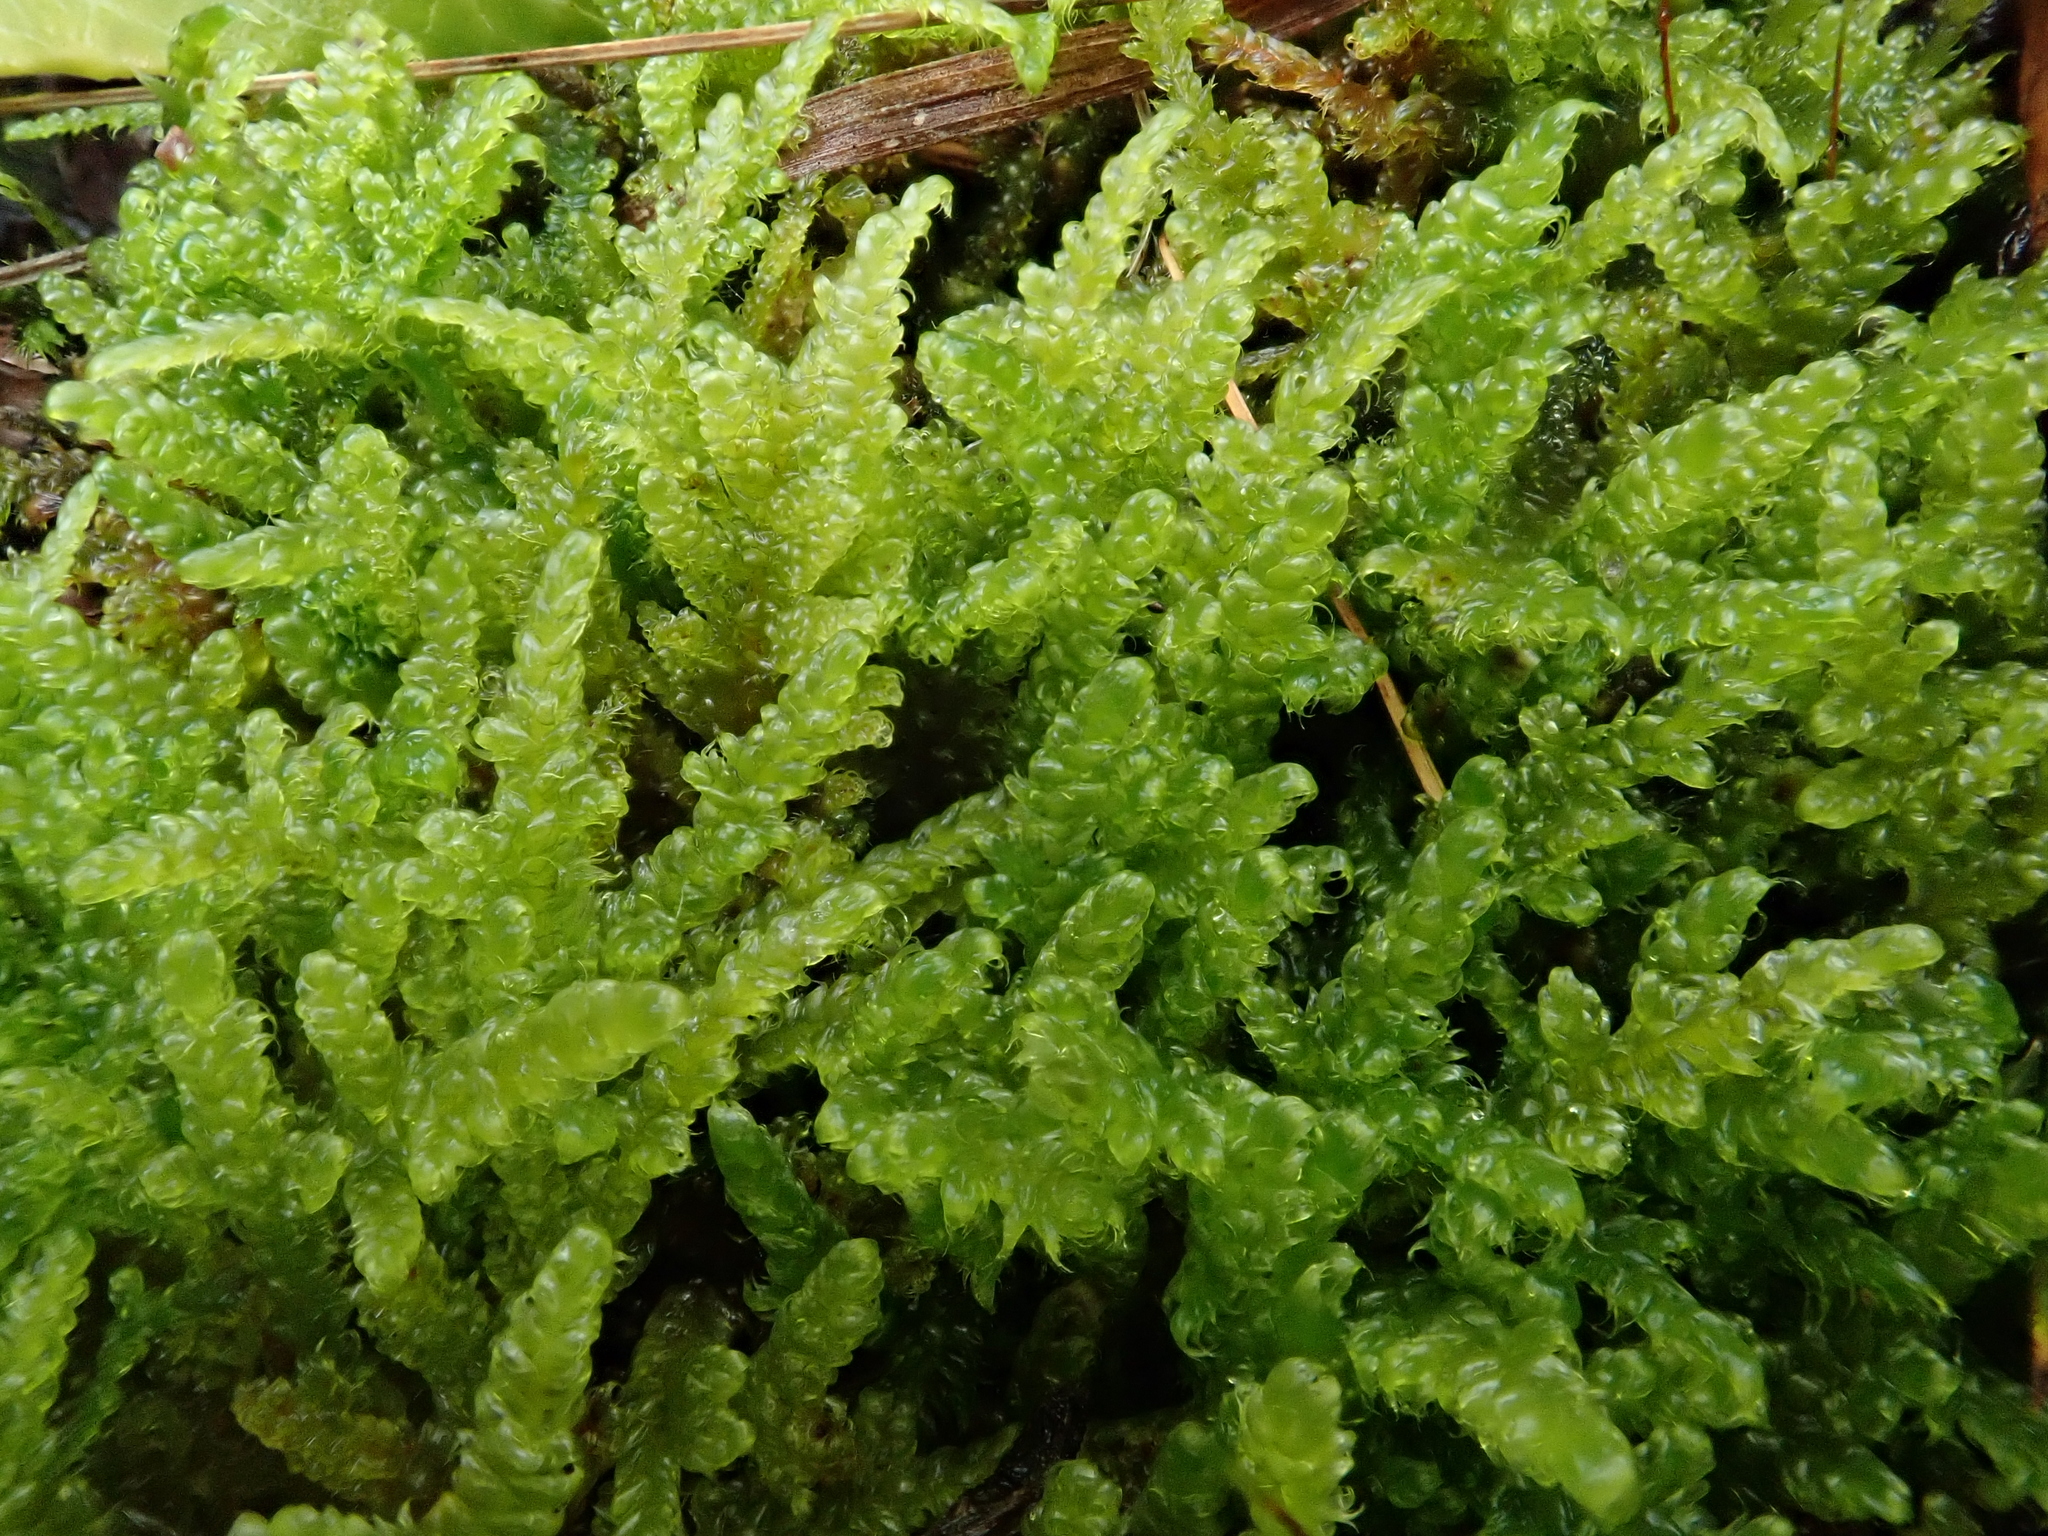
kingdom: Plantae
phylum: Bryophyta
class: Bryopsida
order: Hypnales
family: Hypnaceae
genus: Hypnum
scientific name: Hypnum cupressiforme
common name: Cypress-leaved plait-moss
